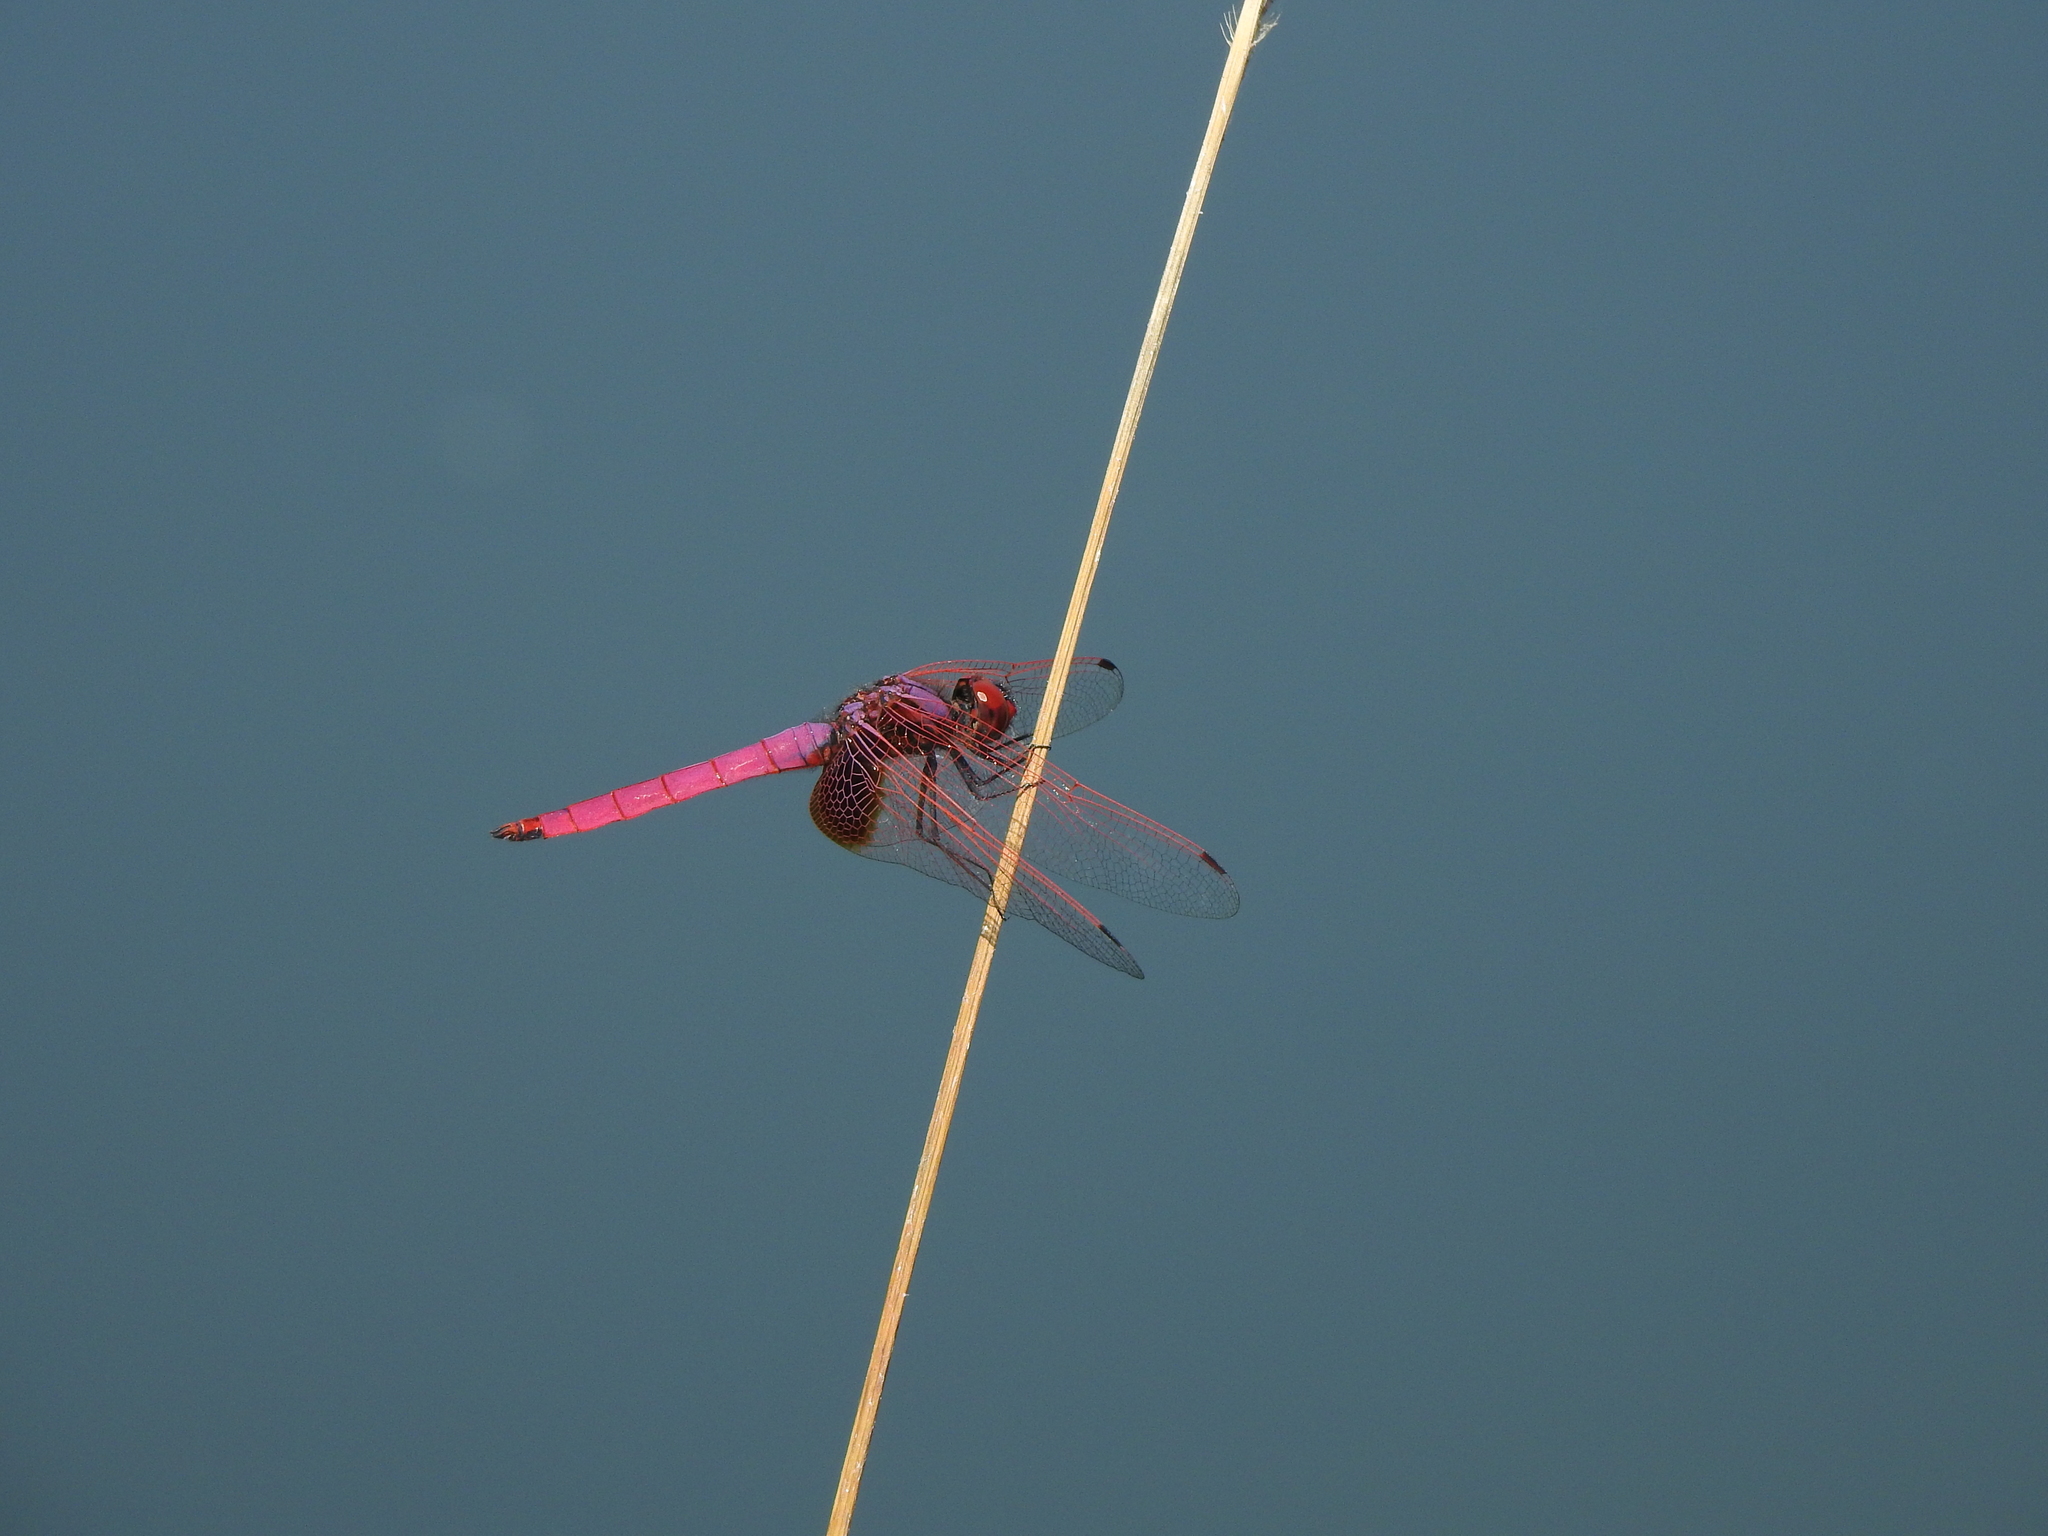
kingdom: Animalia
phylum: Arthropoda
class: Insecta
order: Odonata
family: Libellulidae
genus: Trithemis
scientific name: Trithemis aurora
